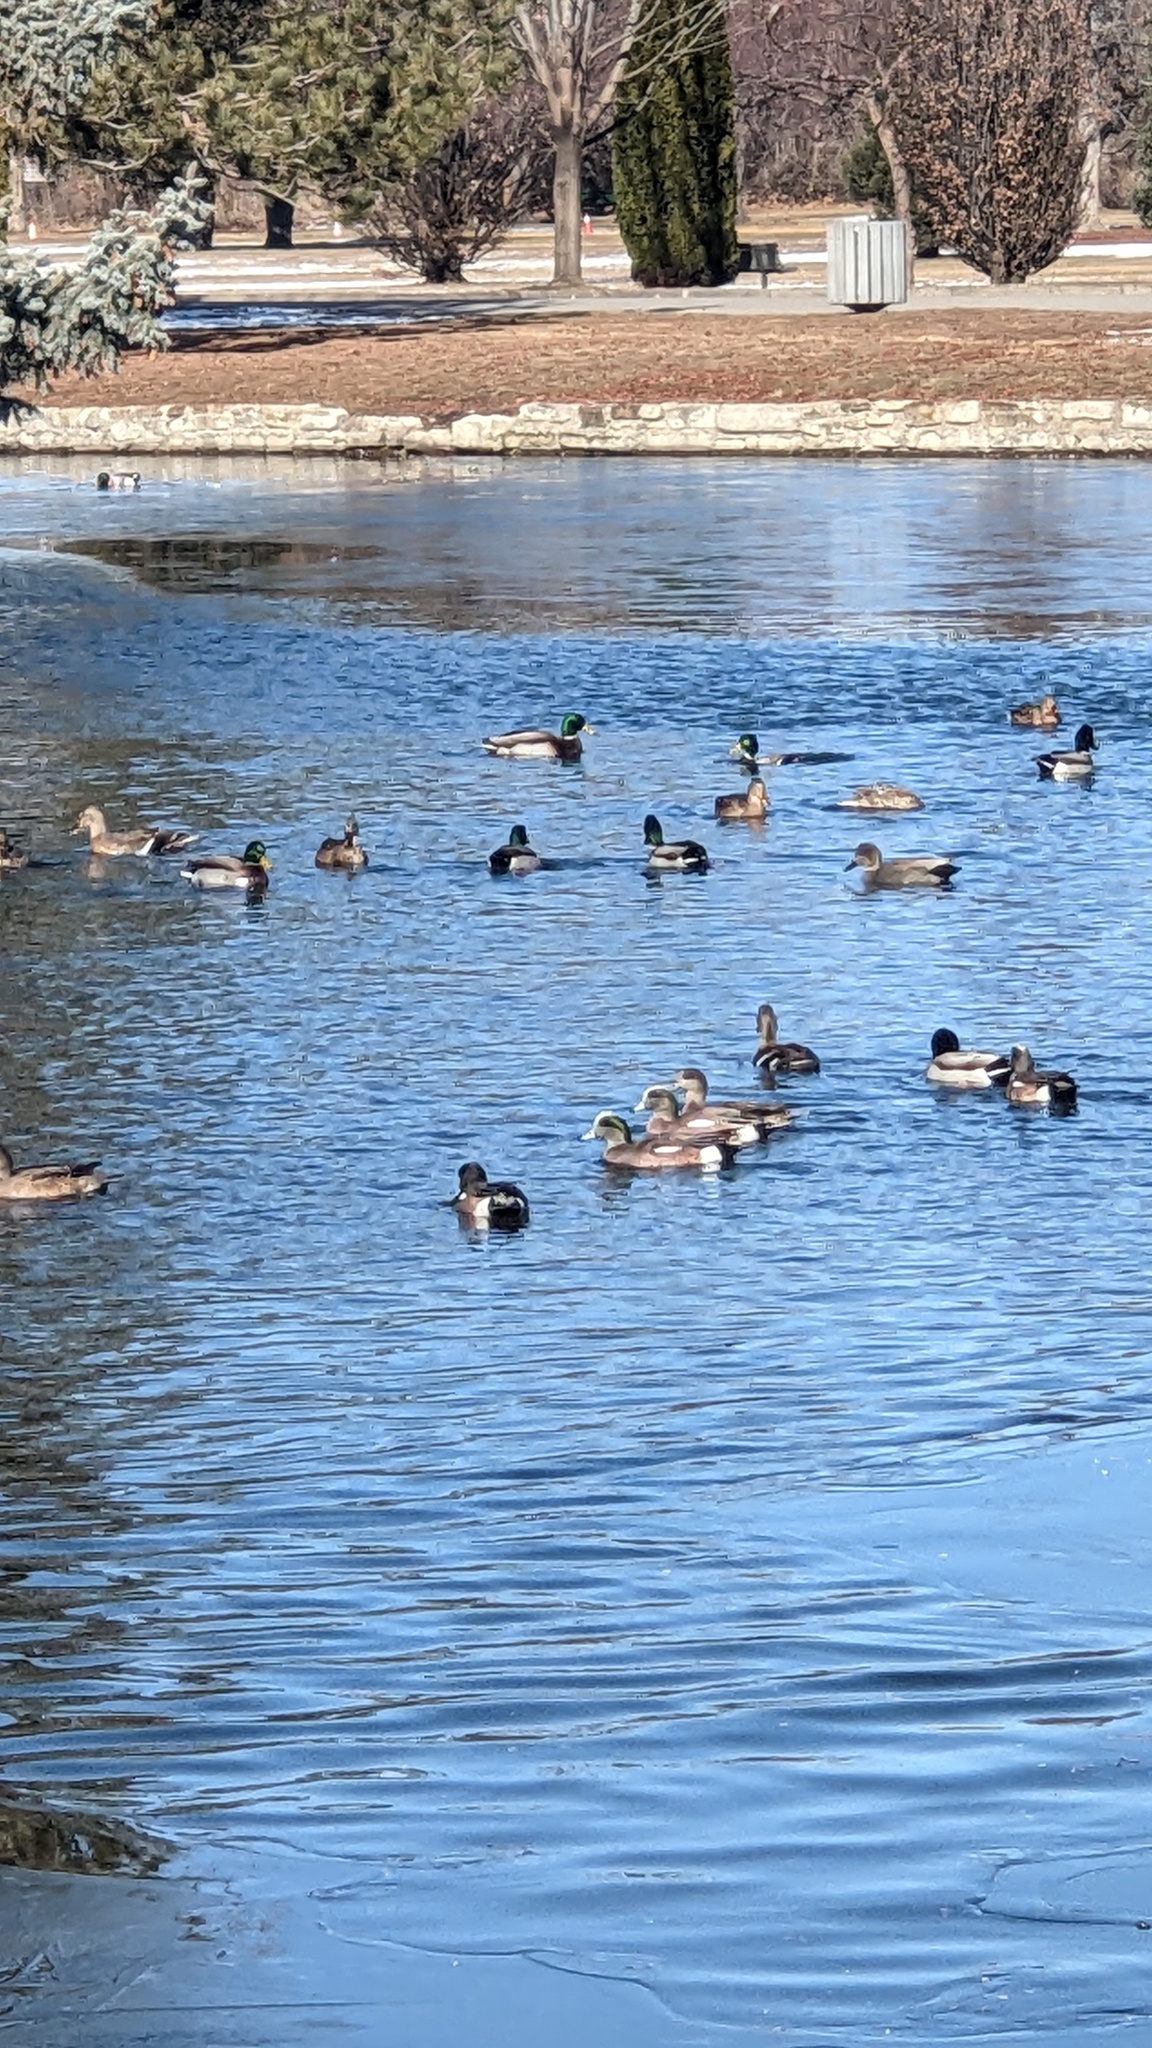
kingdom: Animalia
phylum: Chordata
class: Aves
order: Anseriformes
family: Anatidae
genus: Mareca
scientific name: Mareca americana
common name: American wigeon
